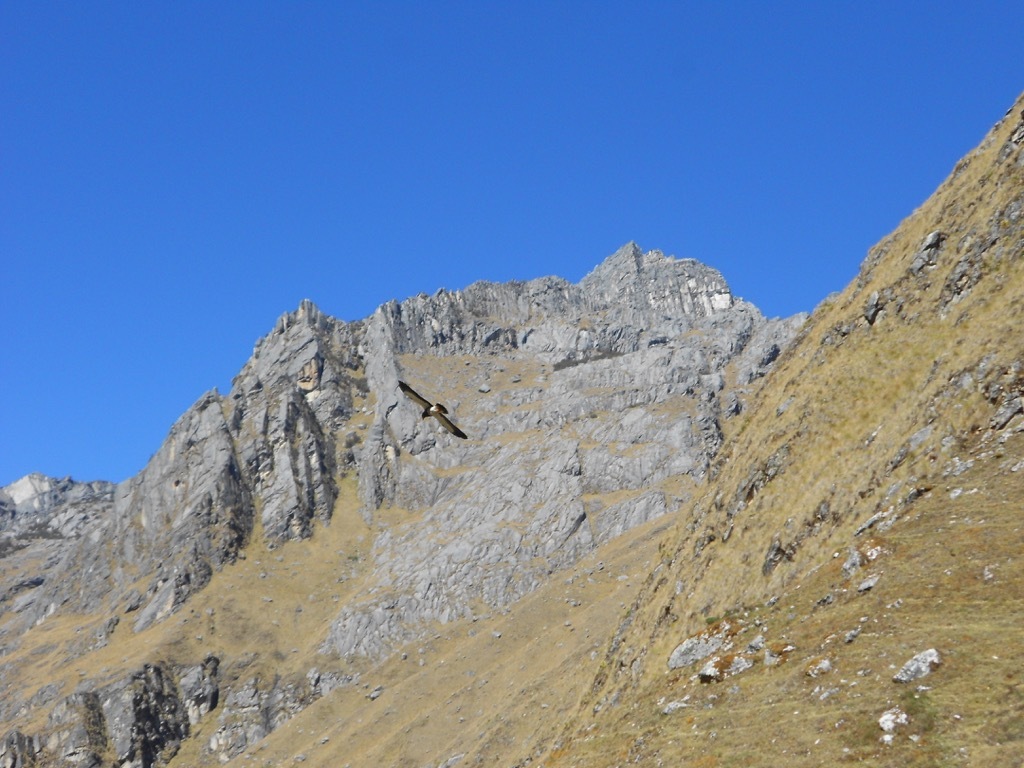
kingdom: Animalia
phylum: Chordata
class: Aves
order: Falconiformes
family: Falconidae
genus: Daptrius
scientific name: Daptrius
